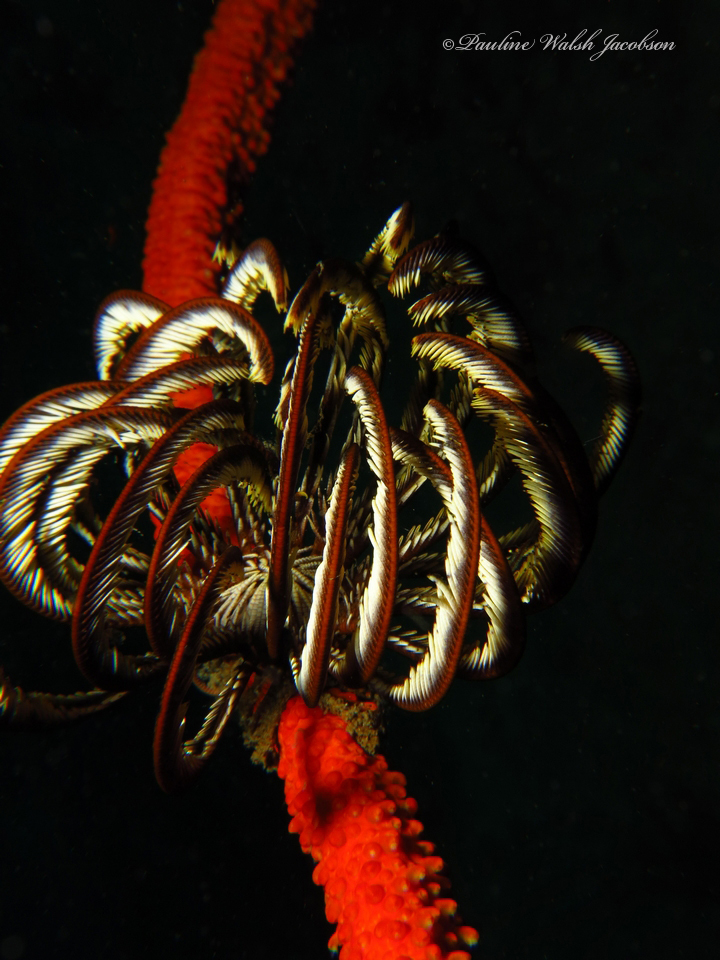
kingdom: Animalia
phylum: Echinodermata
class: Crinoidea
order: Comatulida
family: Colobometridae
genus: Cenometra
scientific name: Cenometra bella
